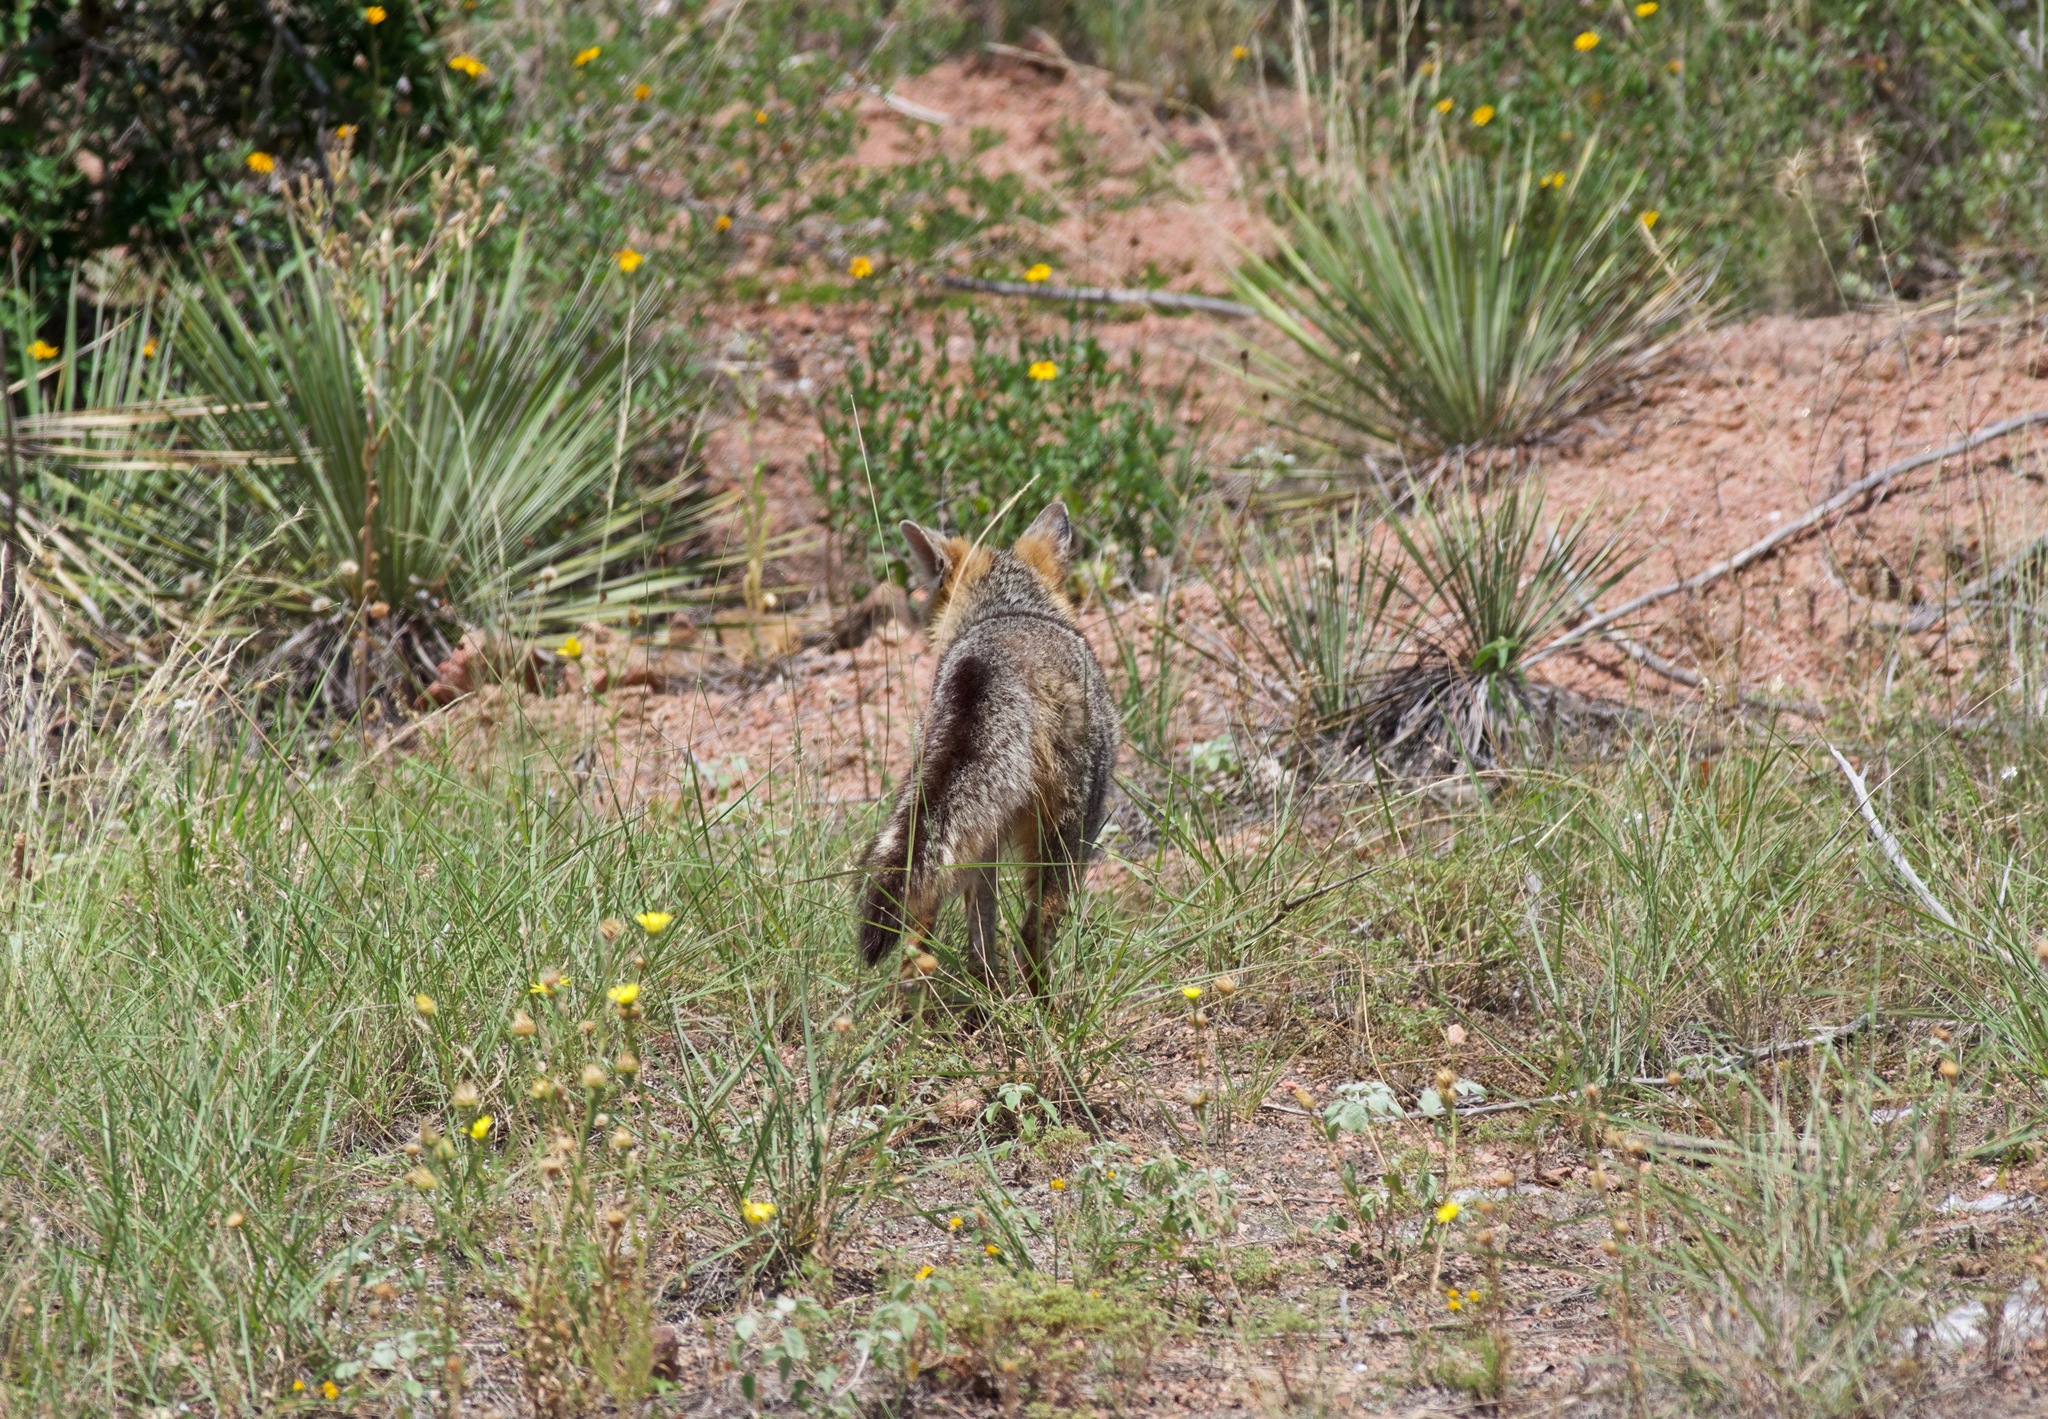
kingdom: Animalia
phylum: Chordata
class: Mammalia
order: Carnivora
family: Canidae
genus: Urocyon
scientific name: Urocyon cinereoargenteus
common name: Gray fox
